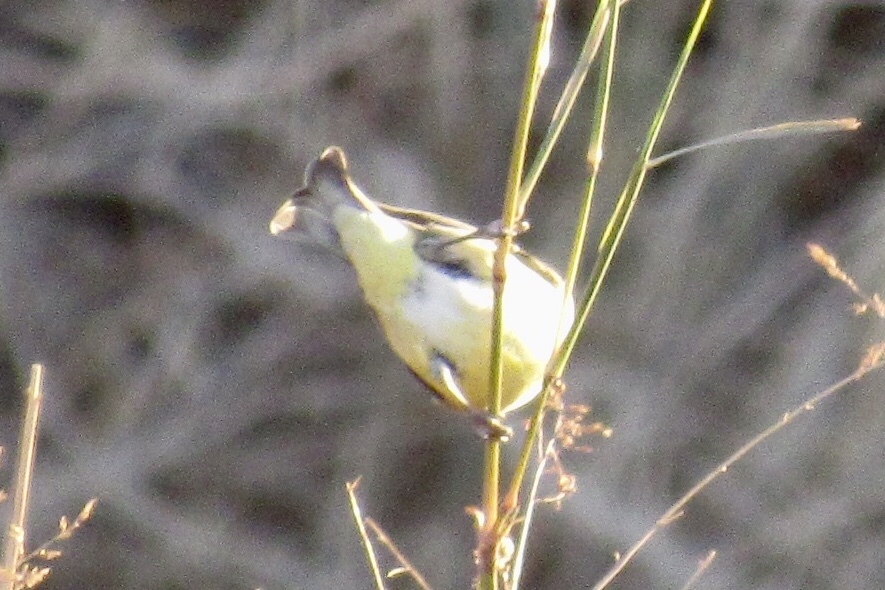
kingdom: Animalia
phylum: Chordata
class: Aves
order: Passeriformes
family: Fringillidae
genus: Spinus
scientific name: Spinus psaltria
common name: Lesser goldfinch
